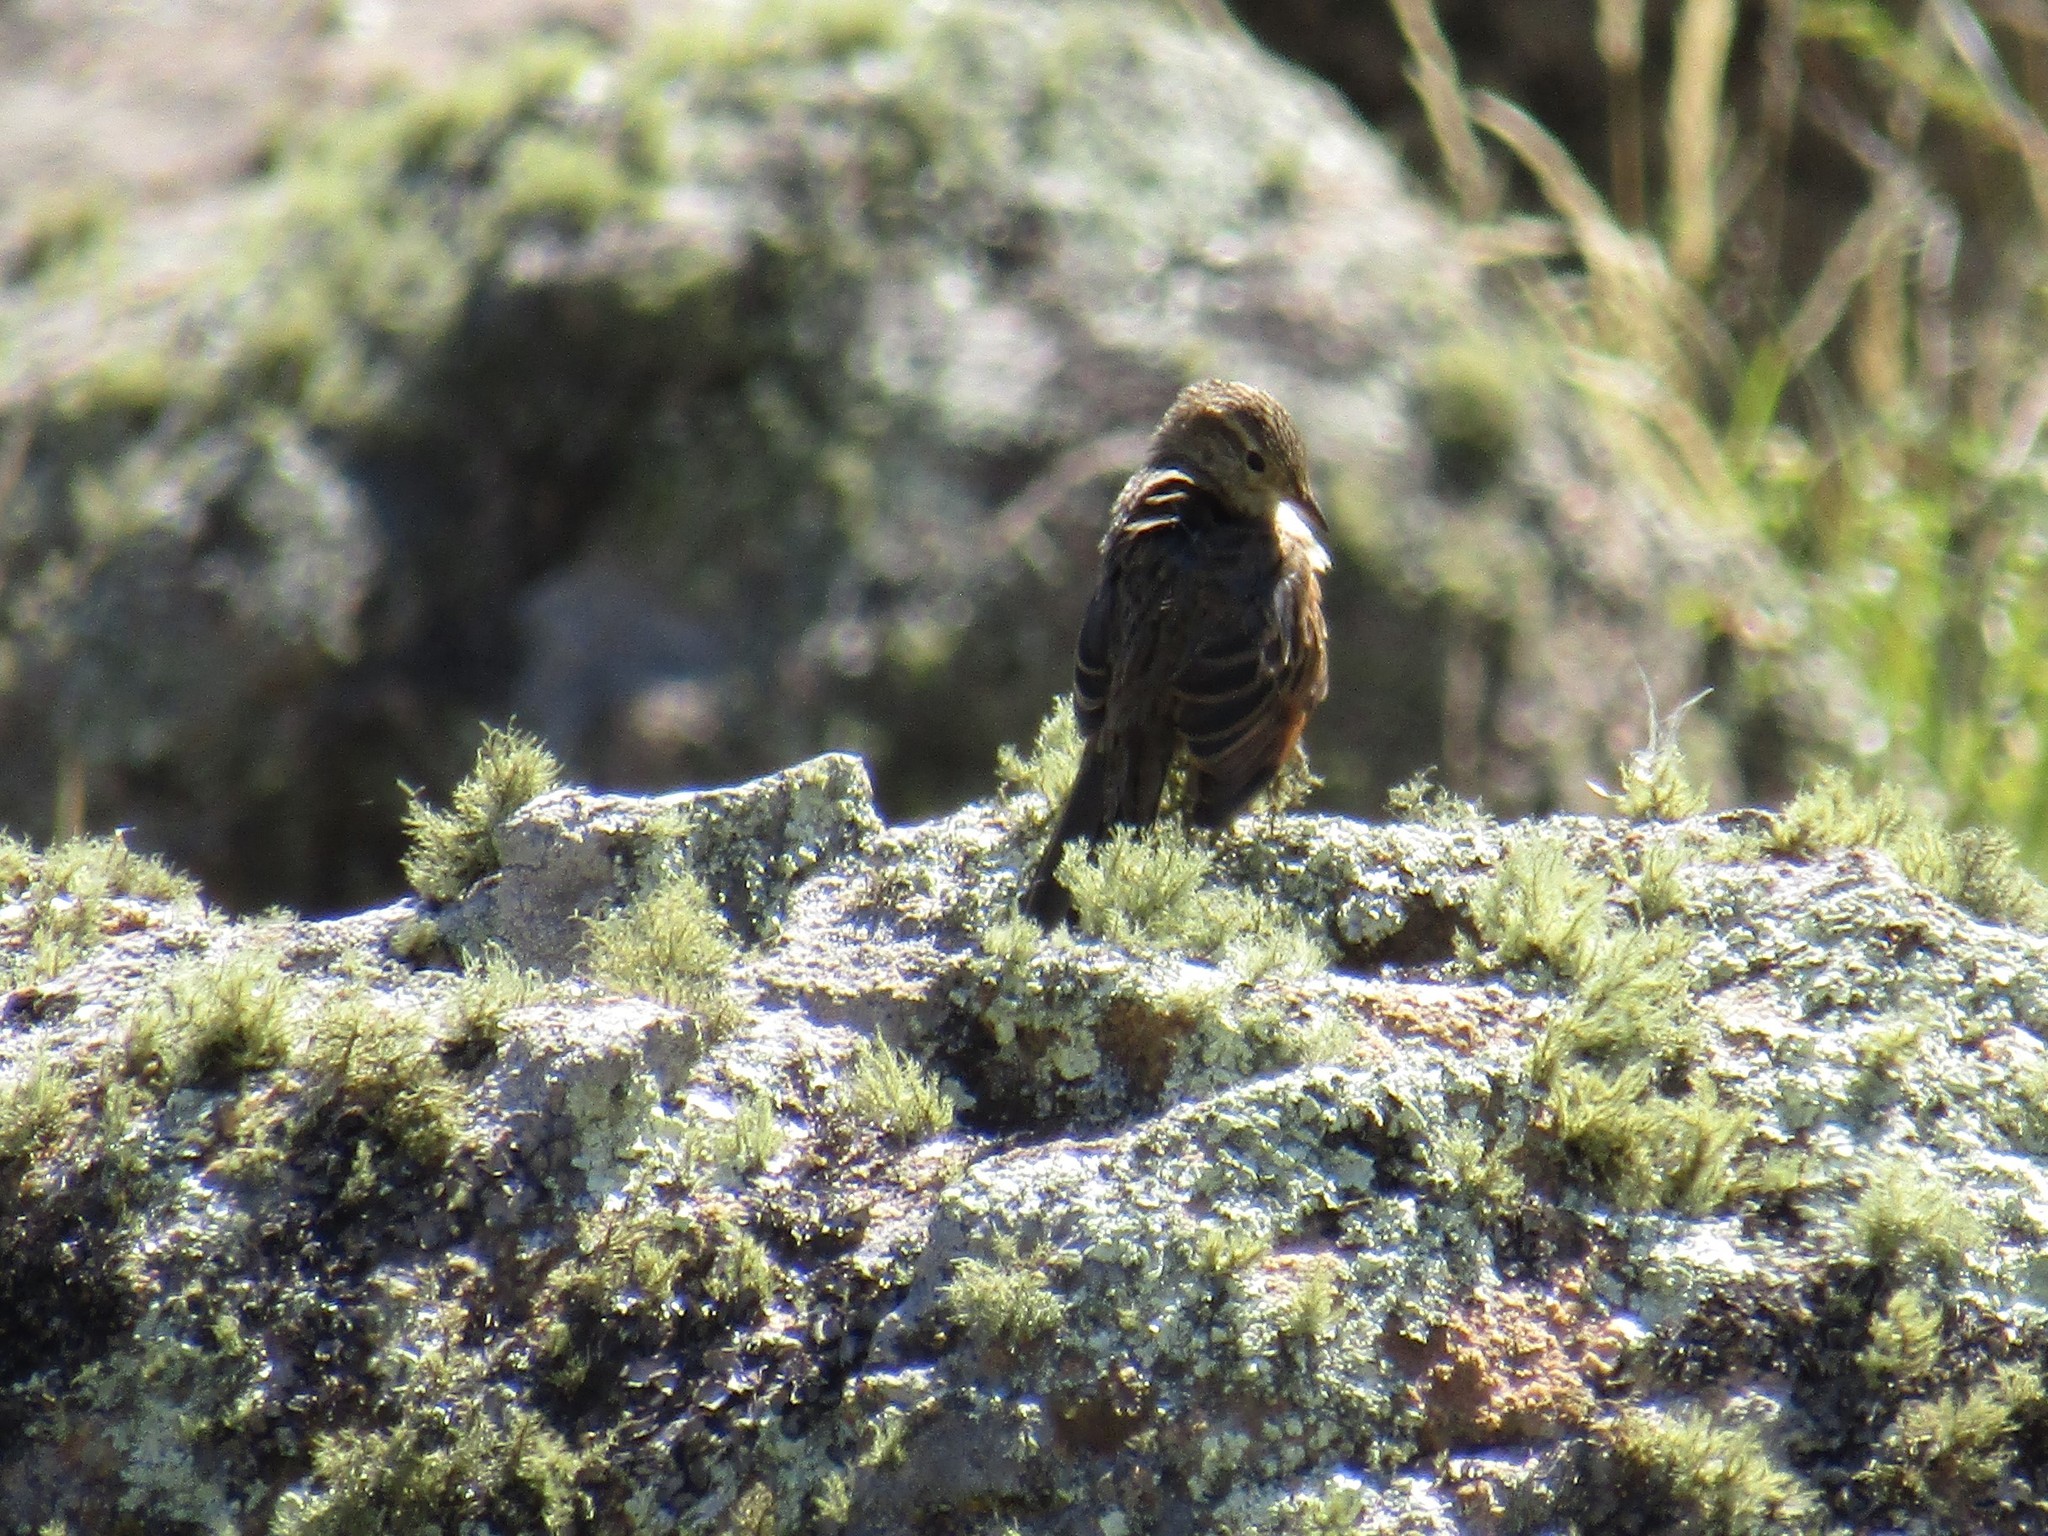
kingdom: Animalia
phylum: Chordata
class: Aves
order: Passeriformes
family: Furnariidae
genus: Asthenes
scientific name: Asthenes wyatti
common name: Streak-backed canastero
